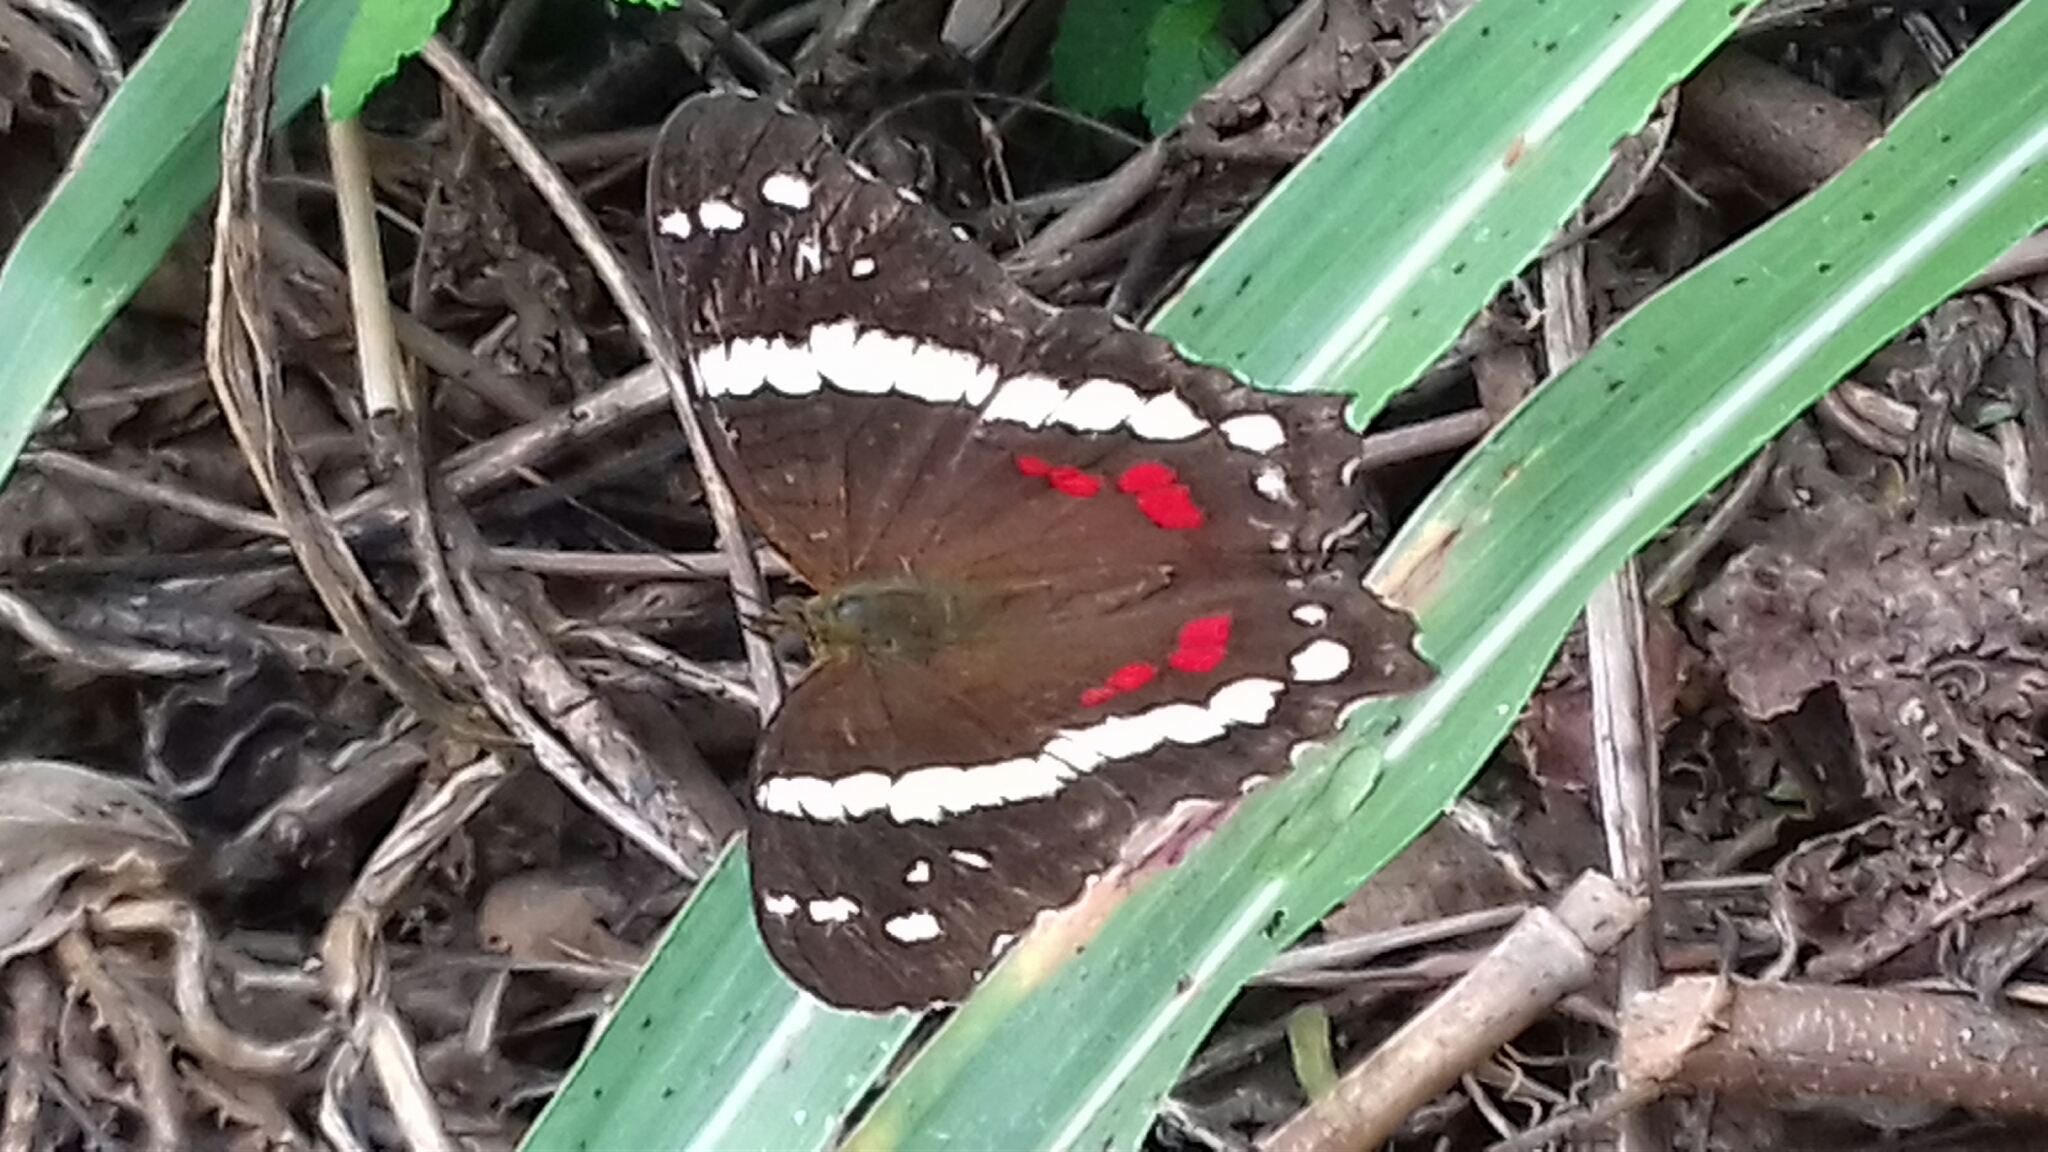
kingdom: Animalia
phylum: Arthropoda
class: Insecta
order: Lepidoptera
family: Nymphalidae
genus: Anartia
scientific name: Anartia fatima
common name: Banded peacock
